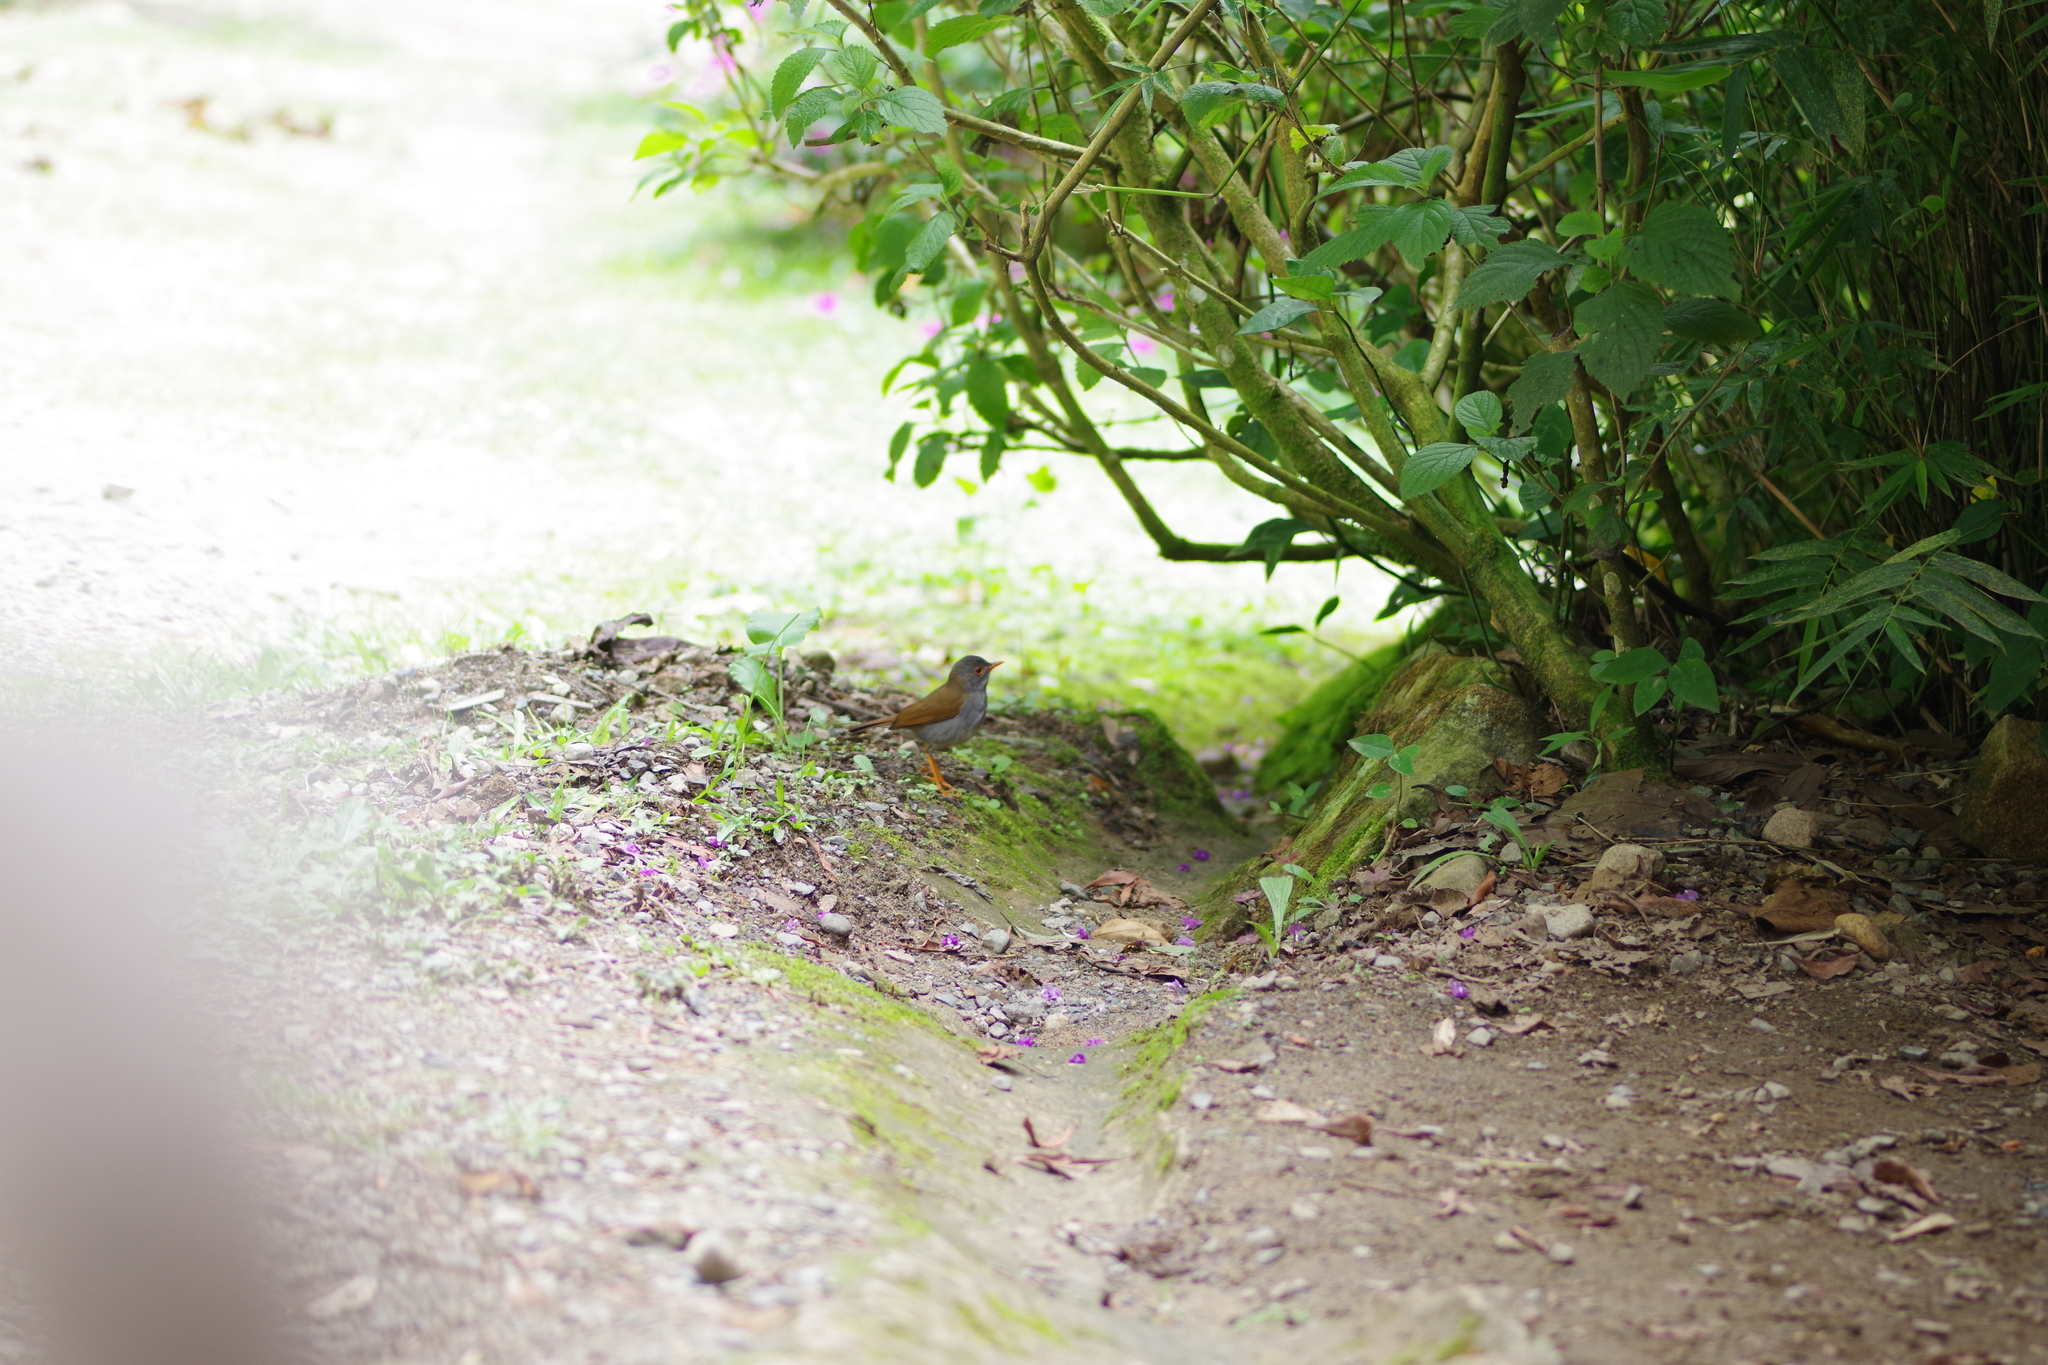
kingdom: Animalia
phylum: Chordata
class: Aves
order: Passeriformes
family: Turdidae
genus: Catharus
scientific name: Catharus aurantiirostris
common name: Orange-billed nightingale-thrush
